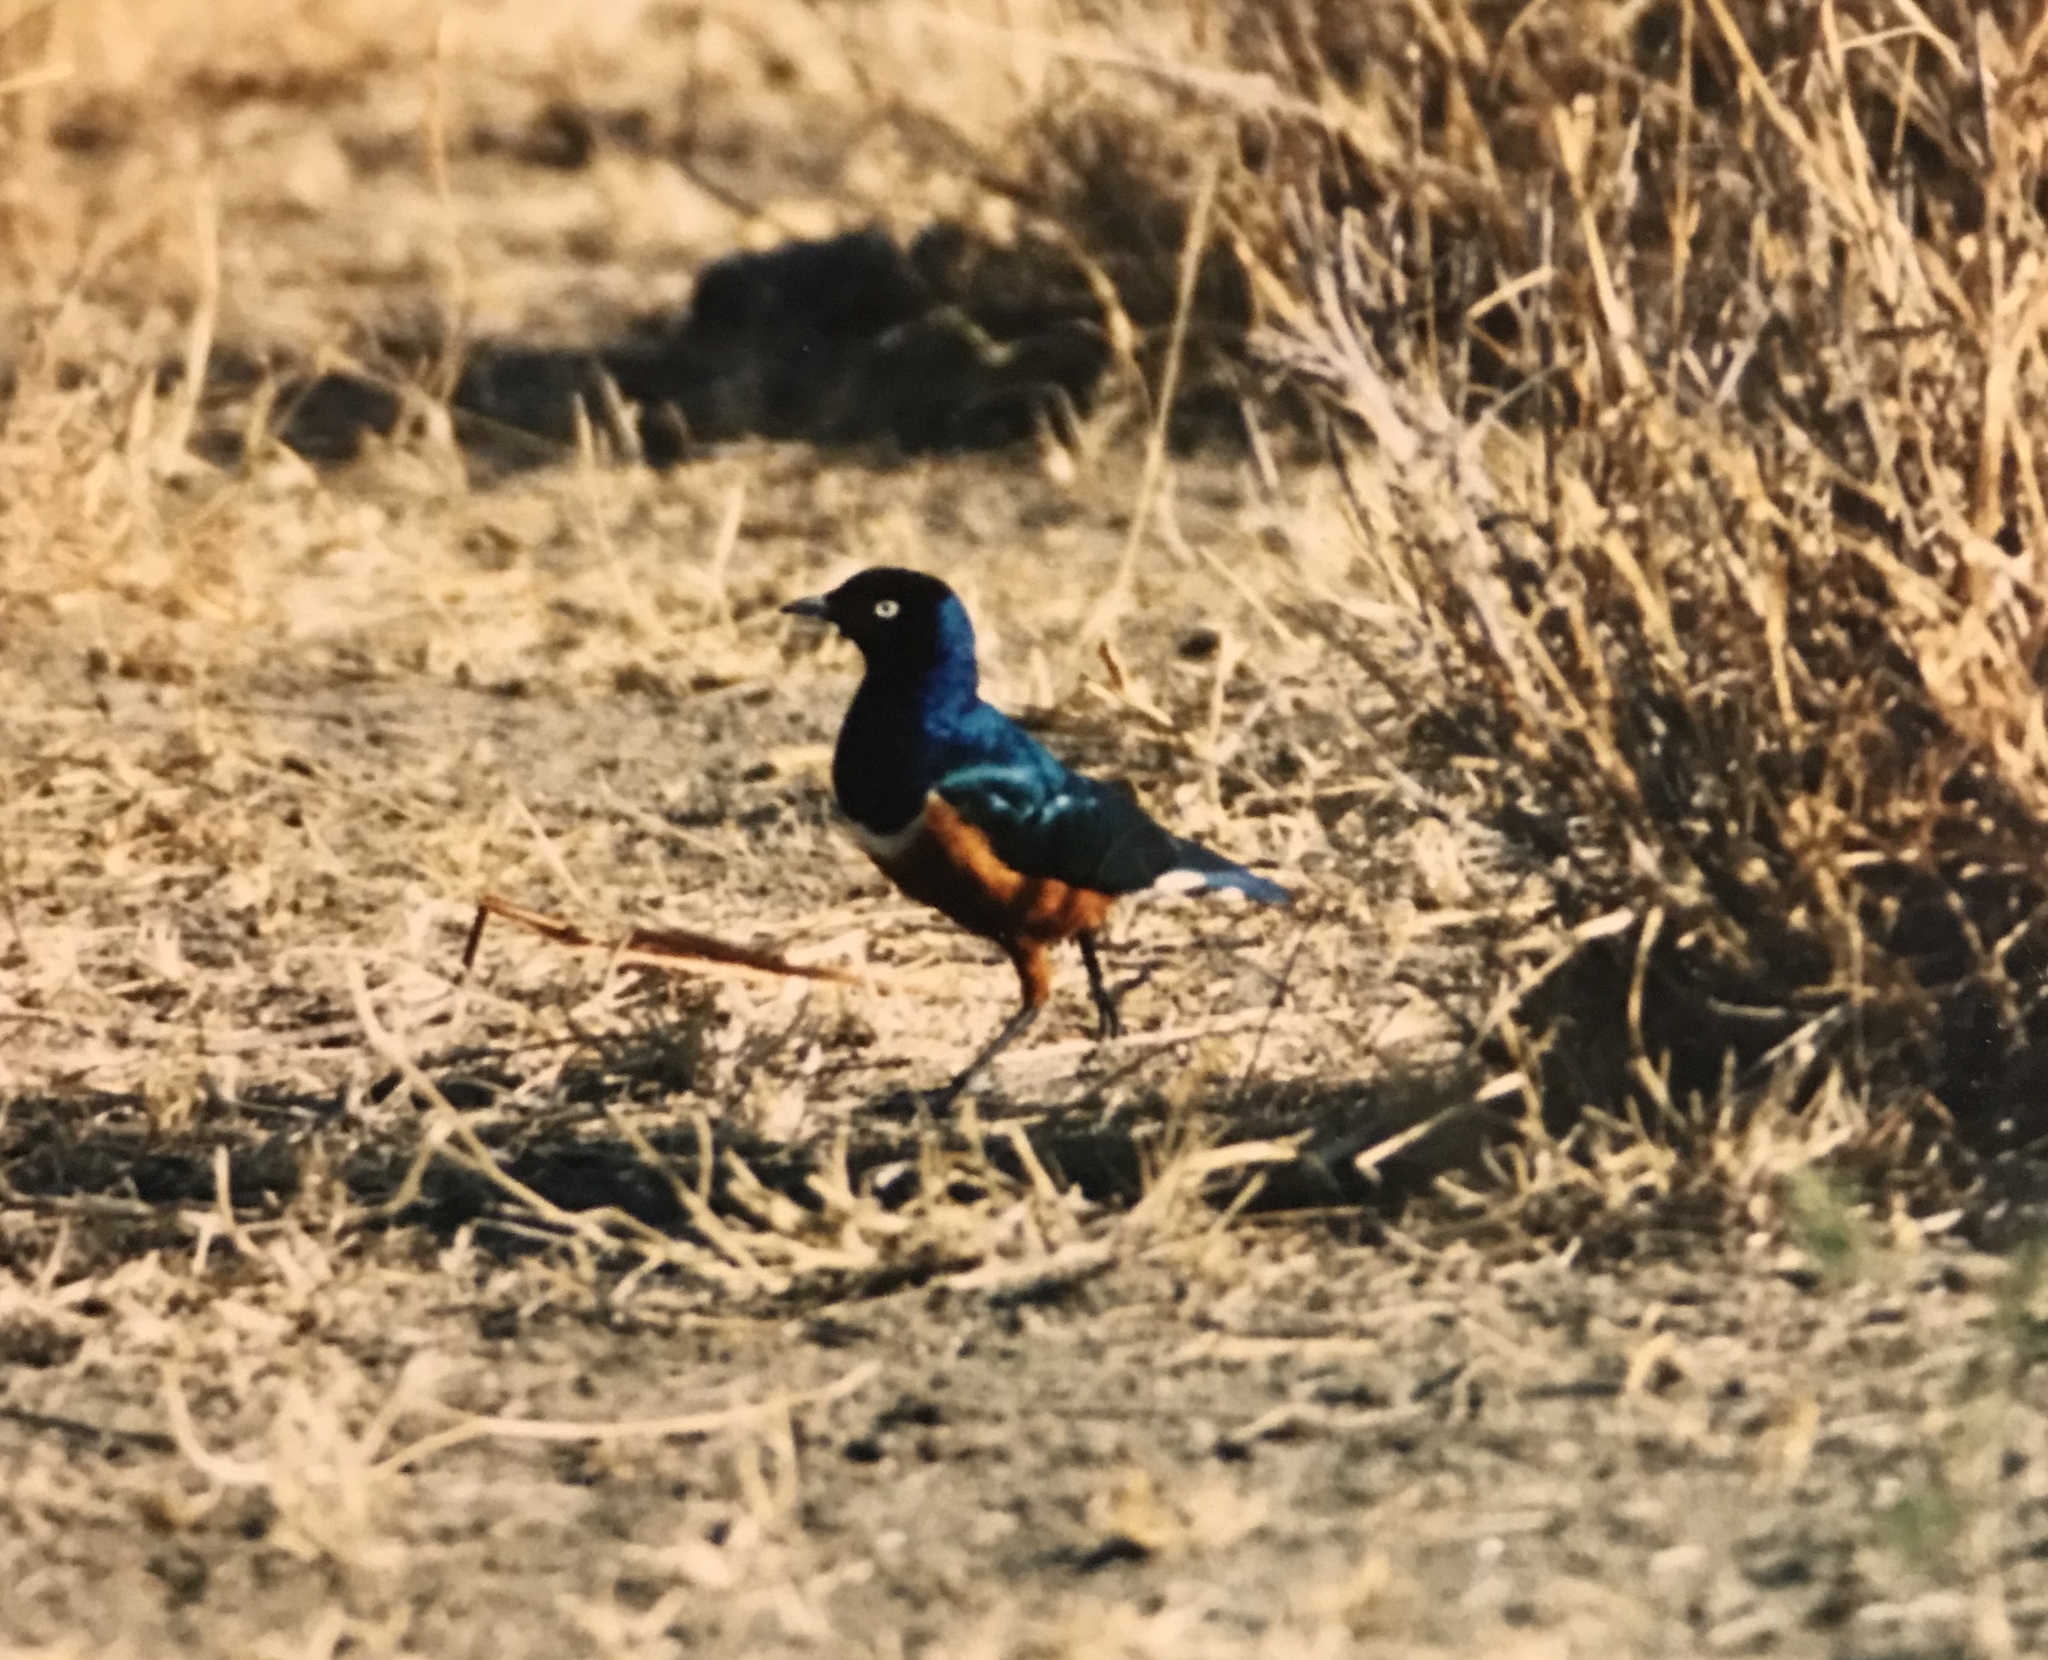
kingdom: Animalia
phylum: Chordata
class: Aves
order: Passeriformes
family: Sturnidae
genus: Lamprotornis
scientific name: Lamprotornis superbus
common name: Superb starling
